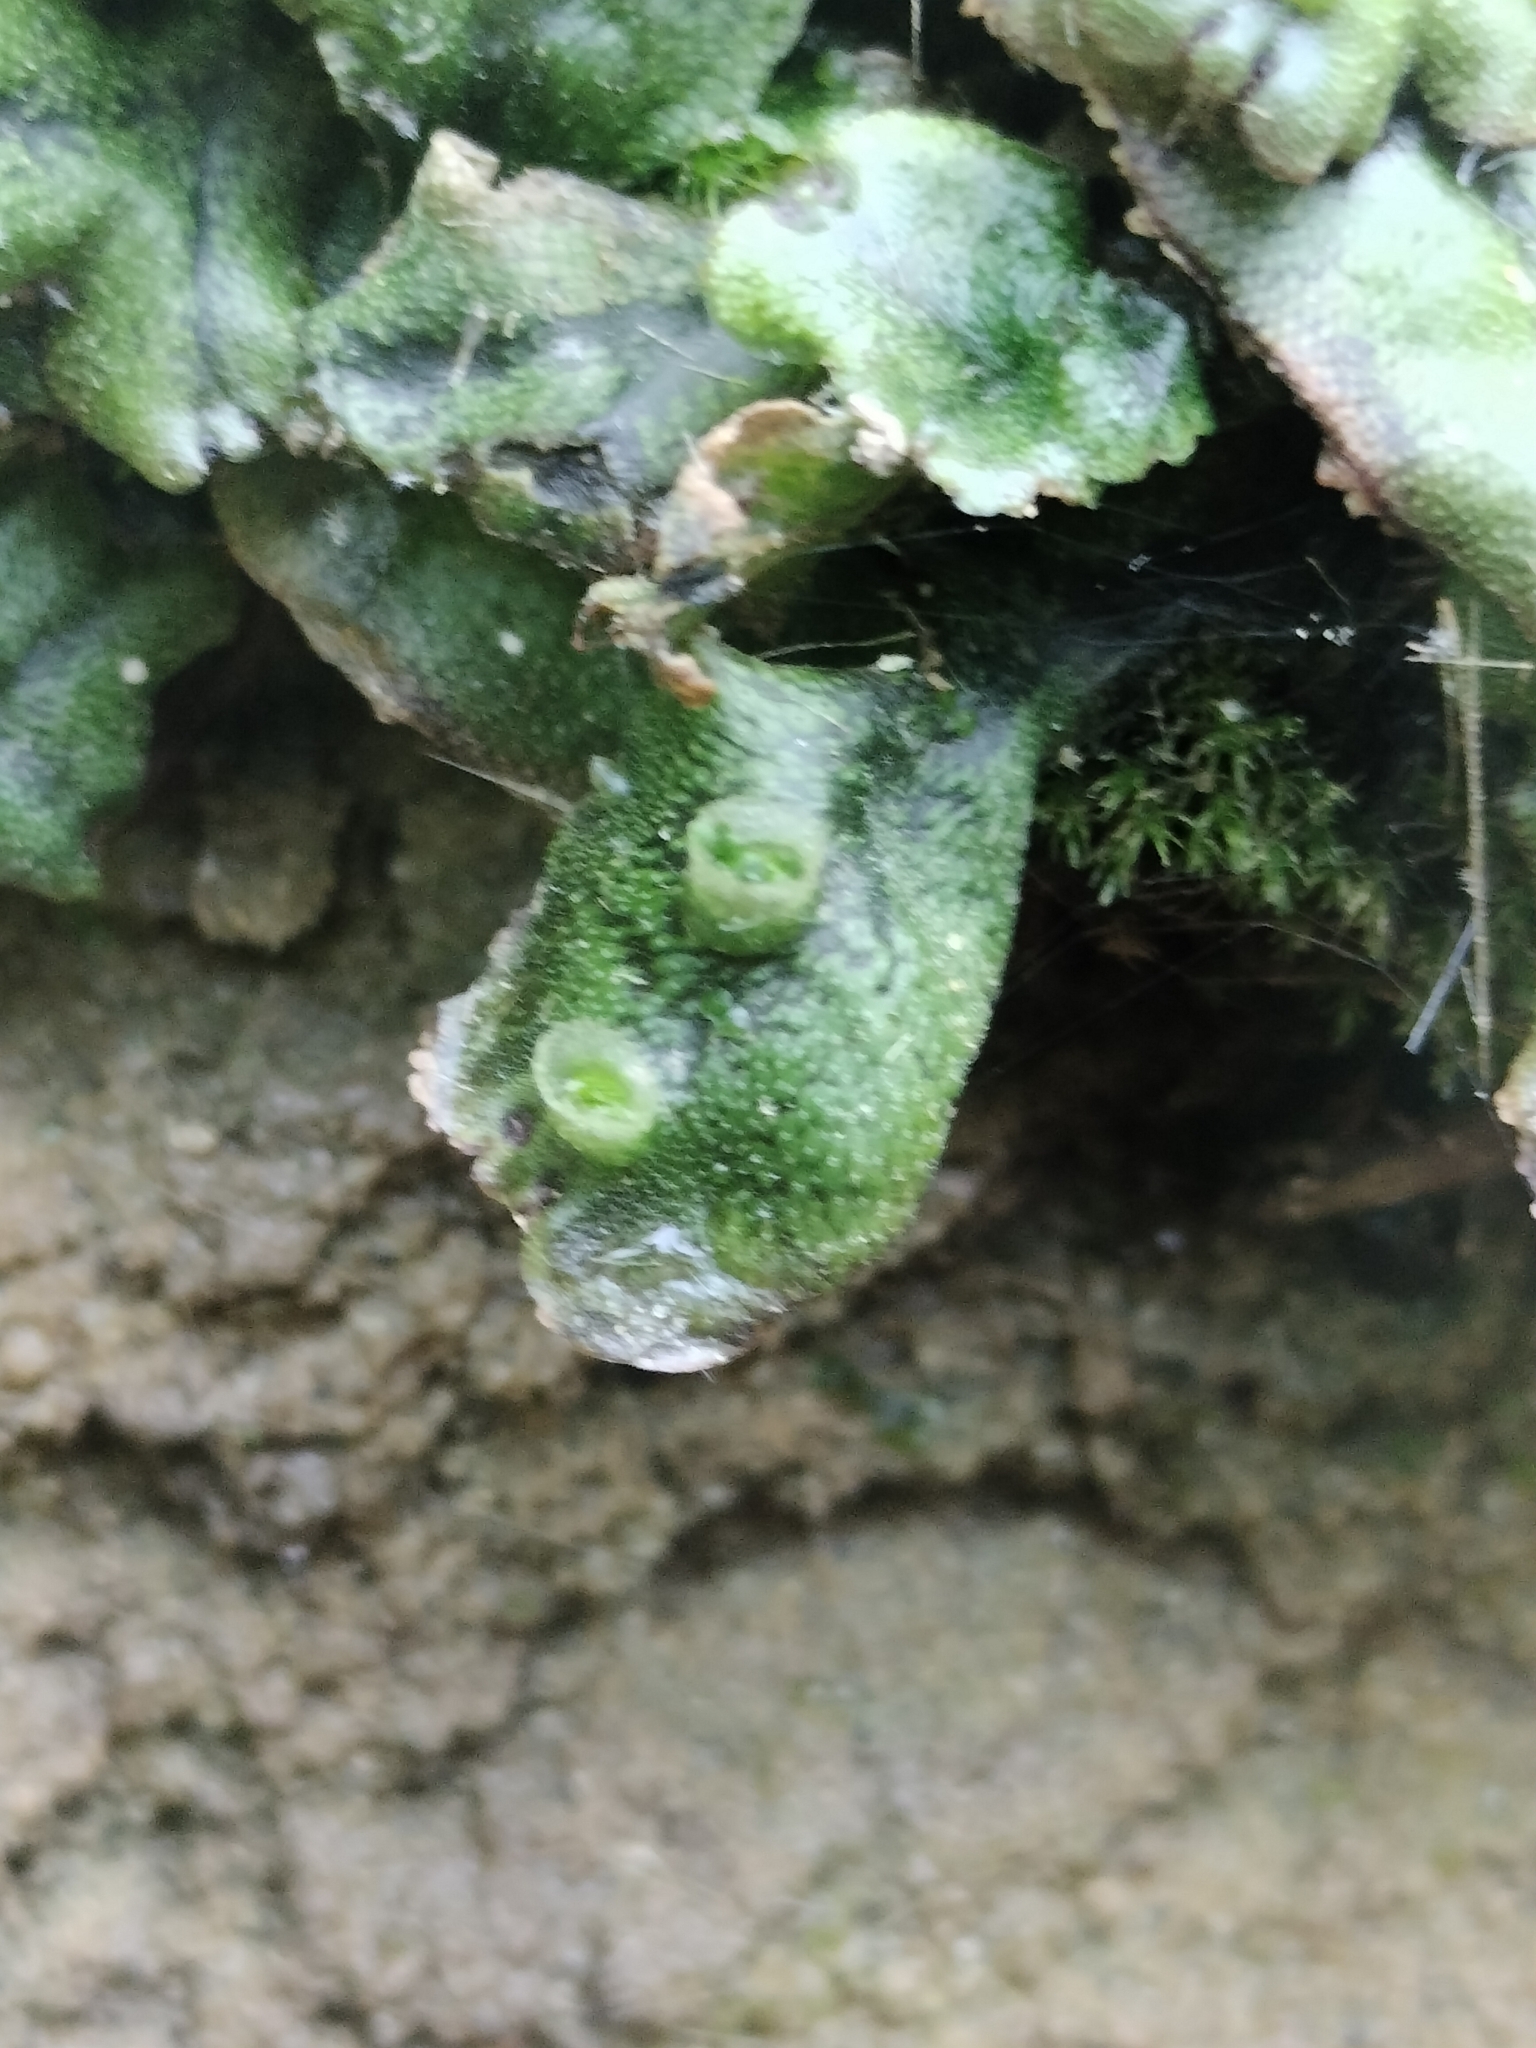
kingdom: Plantae
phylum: Marchantiophyta
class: Marchantiopsida
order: Marchantiales
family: Marchantiaceae
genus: Marchantia
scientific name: Marchantia polymorpha
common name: Common liverwort
